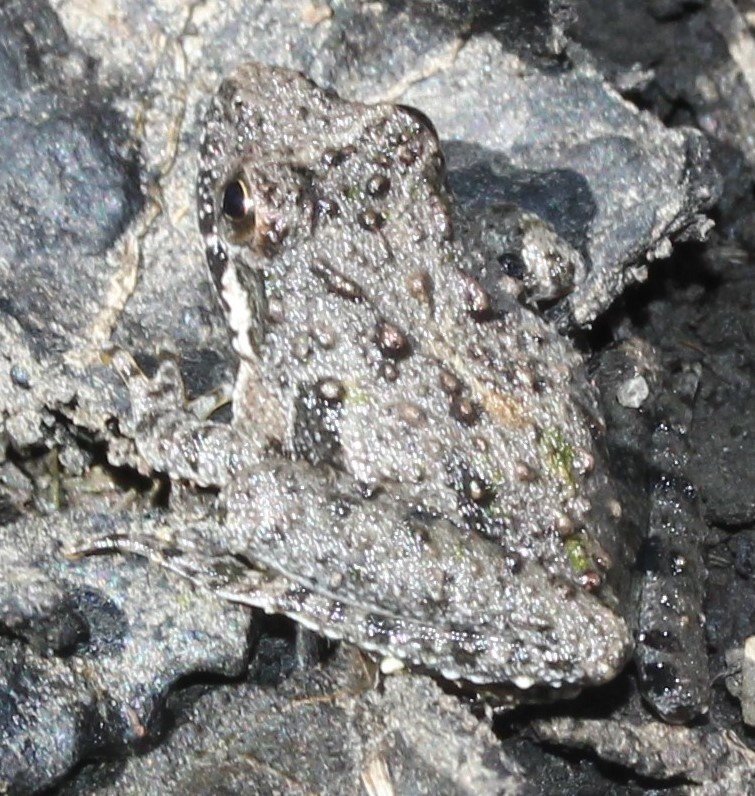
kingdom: Animalia
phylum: Chordata
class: Amphibia
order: Anura
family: Hylidae
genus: Acris
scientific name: Acris blanchardi
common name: Blanchard's cricket frog
